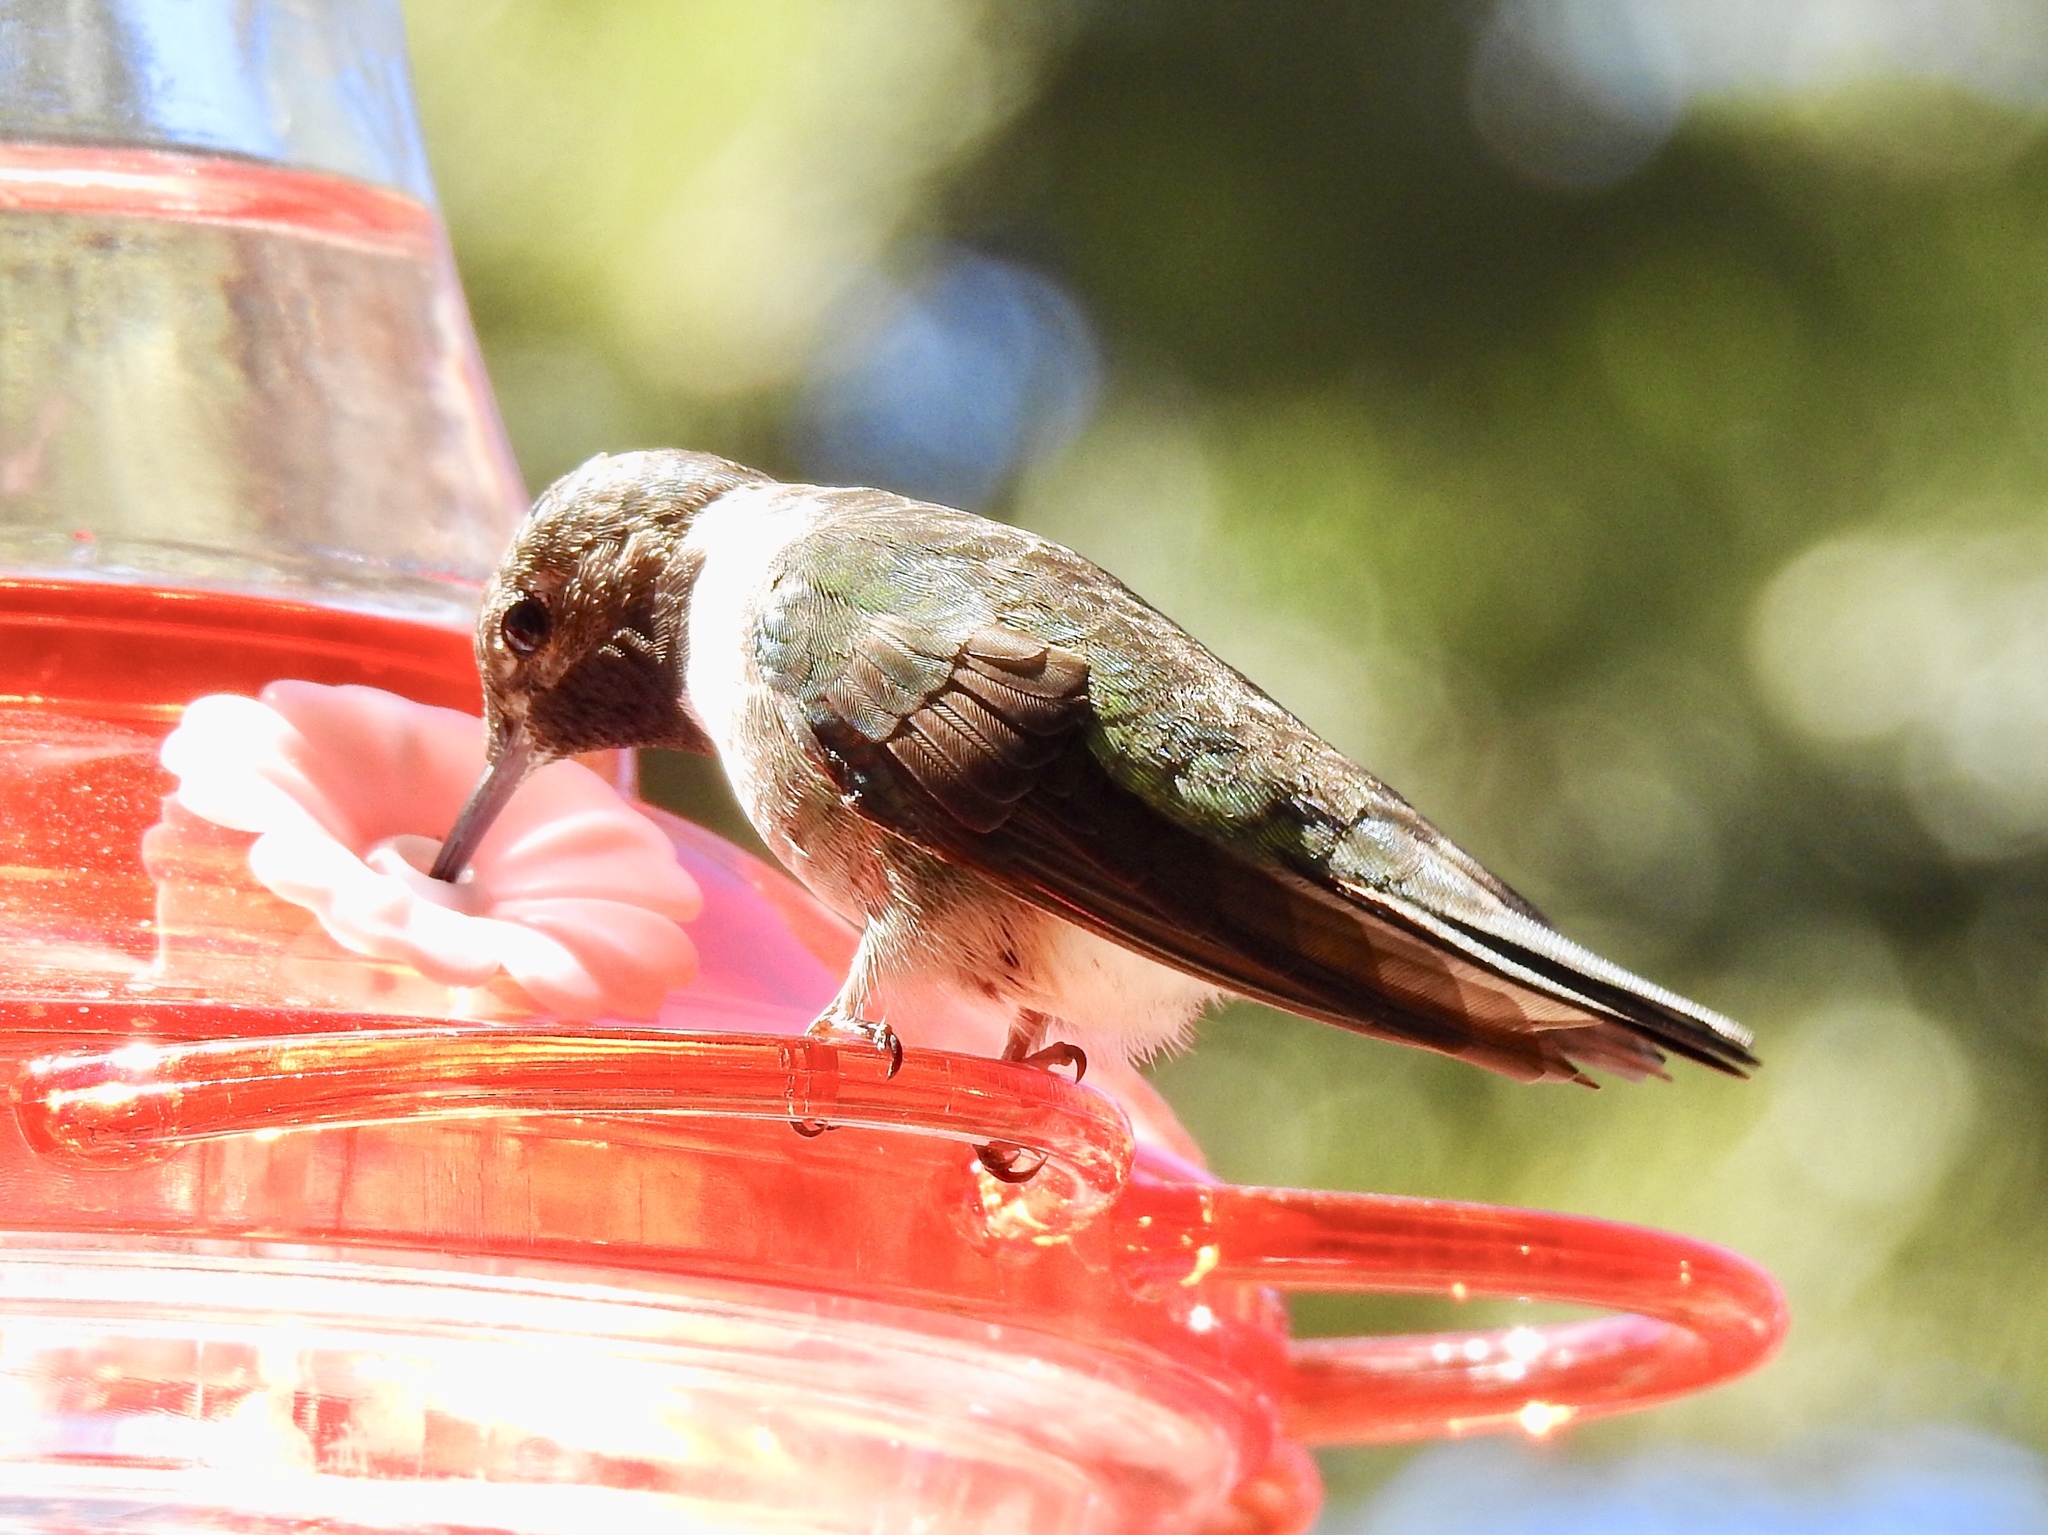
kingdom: Animalia
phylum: Chordata
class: Aves
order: Apodiformes
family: Trochilidae
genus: Selasphorus
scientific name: Selasphorus platycercus
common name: Broad-tailed hummingbird
